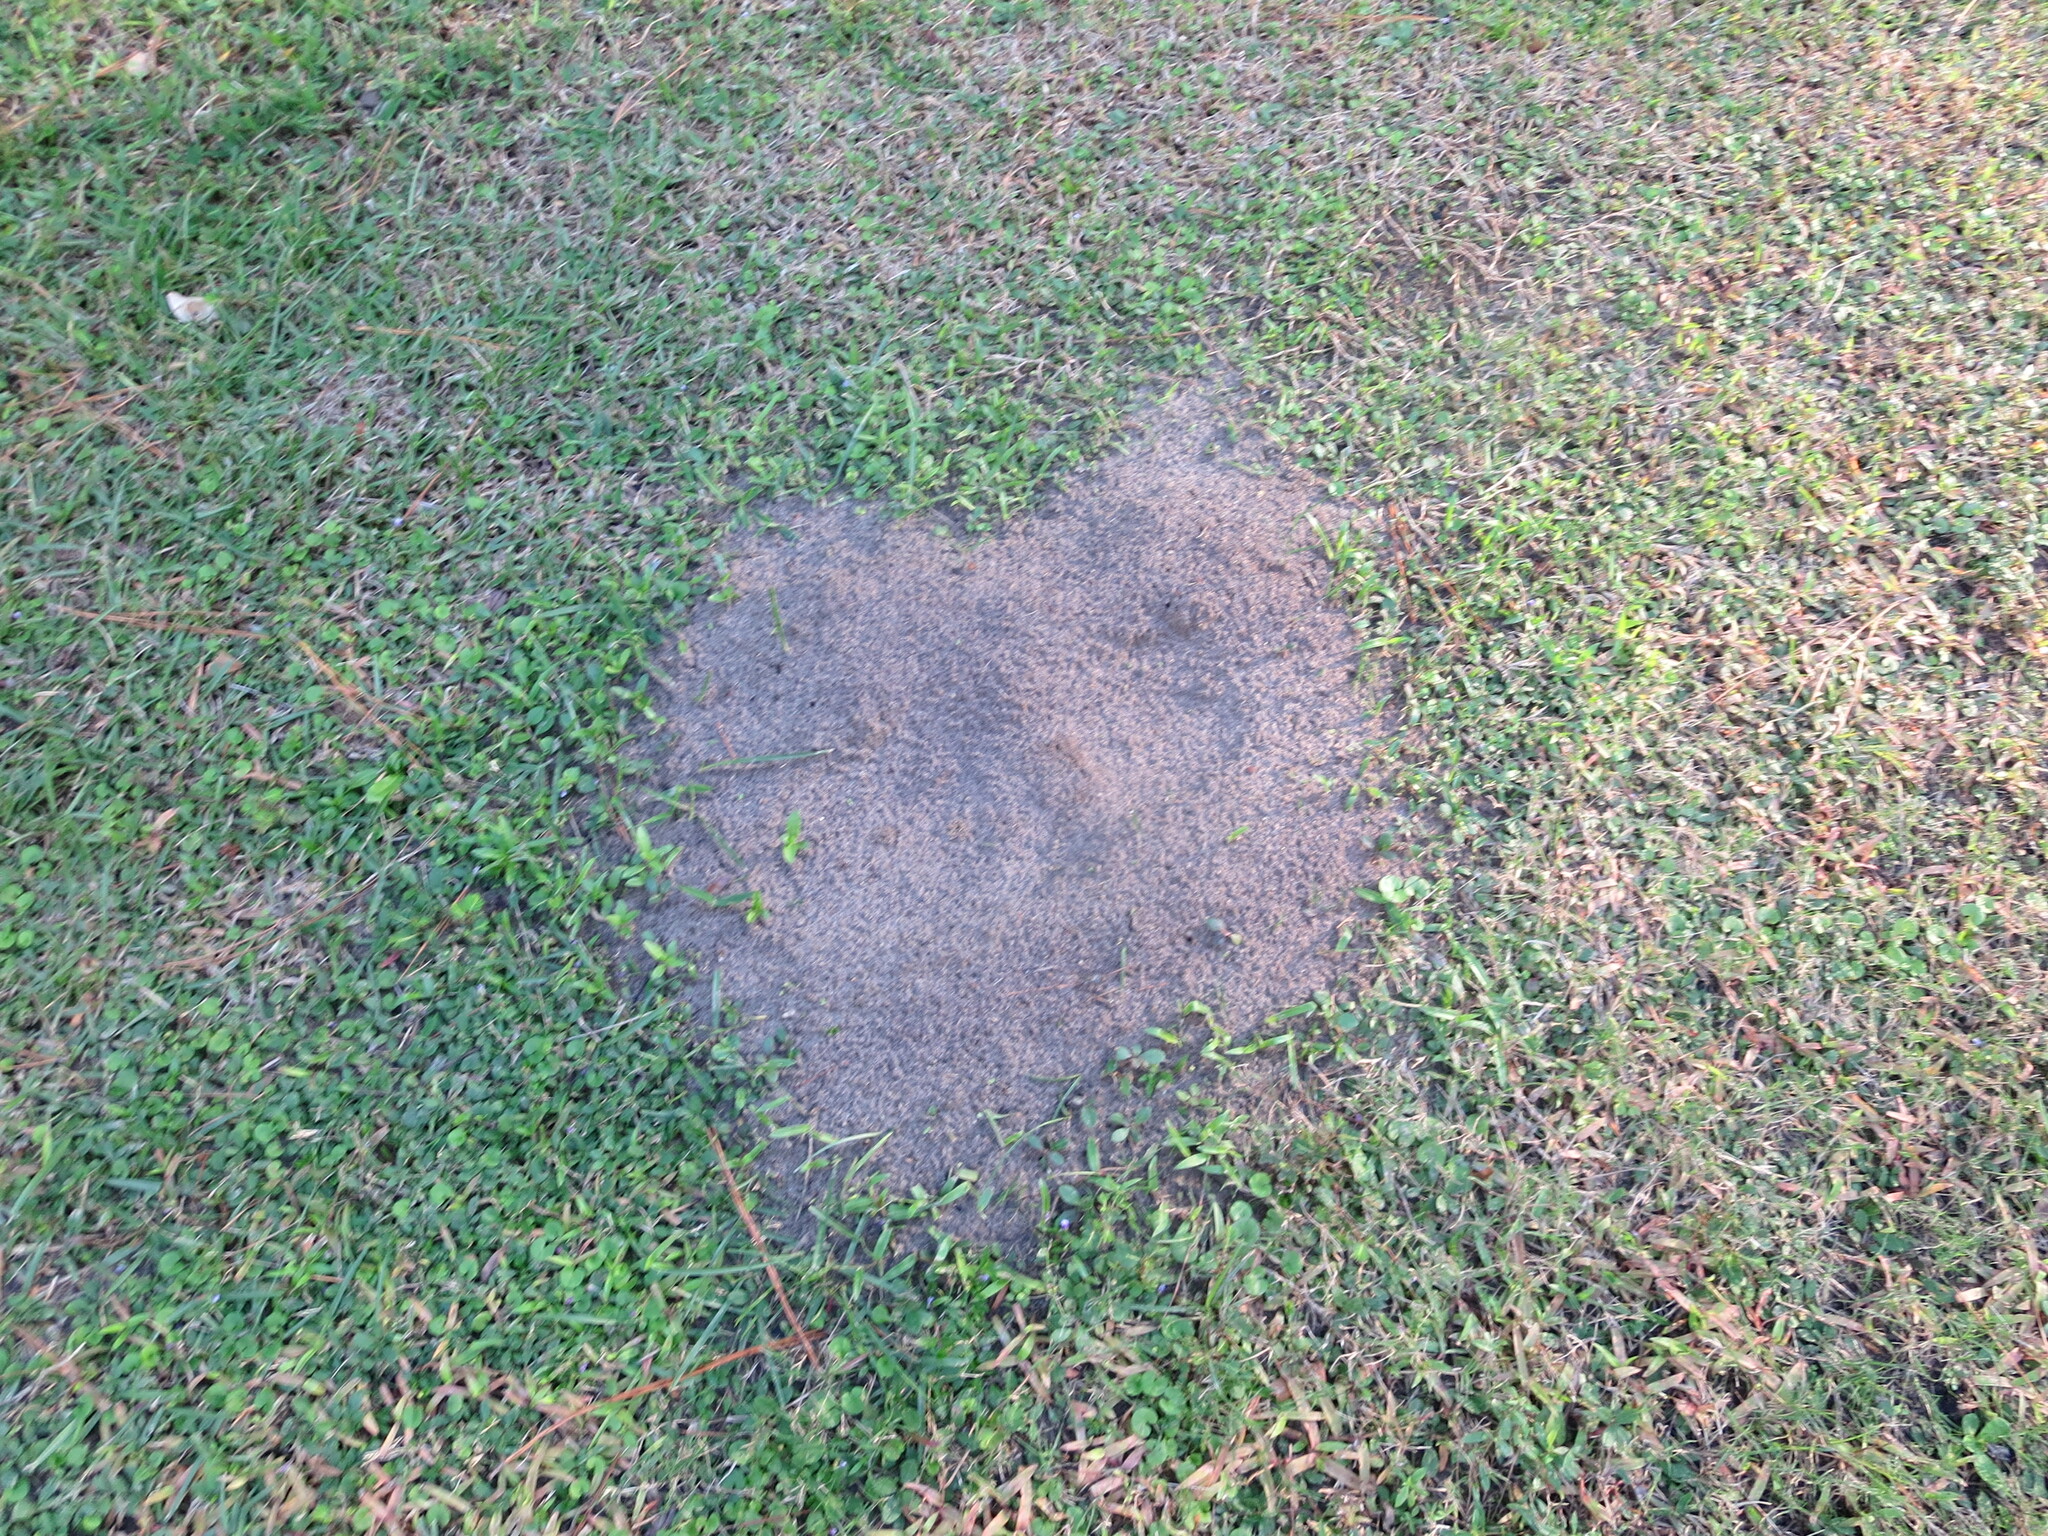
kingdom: Animalia
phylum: Arthropoda
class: Insecta
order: Hymenoptera
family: Formicidae
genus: Solenopsis
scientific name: Solenopsis invicta
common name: Red imported fire ant
